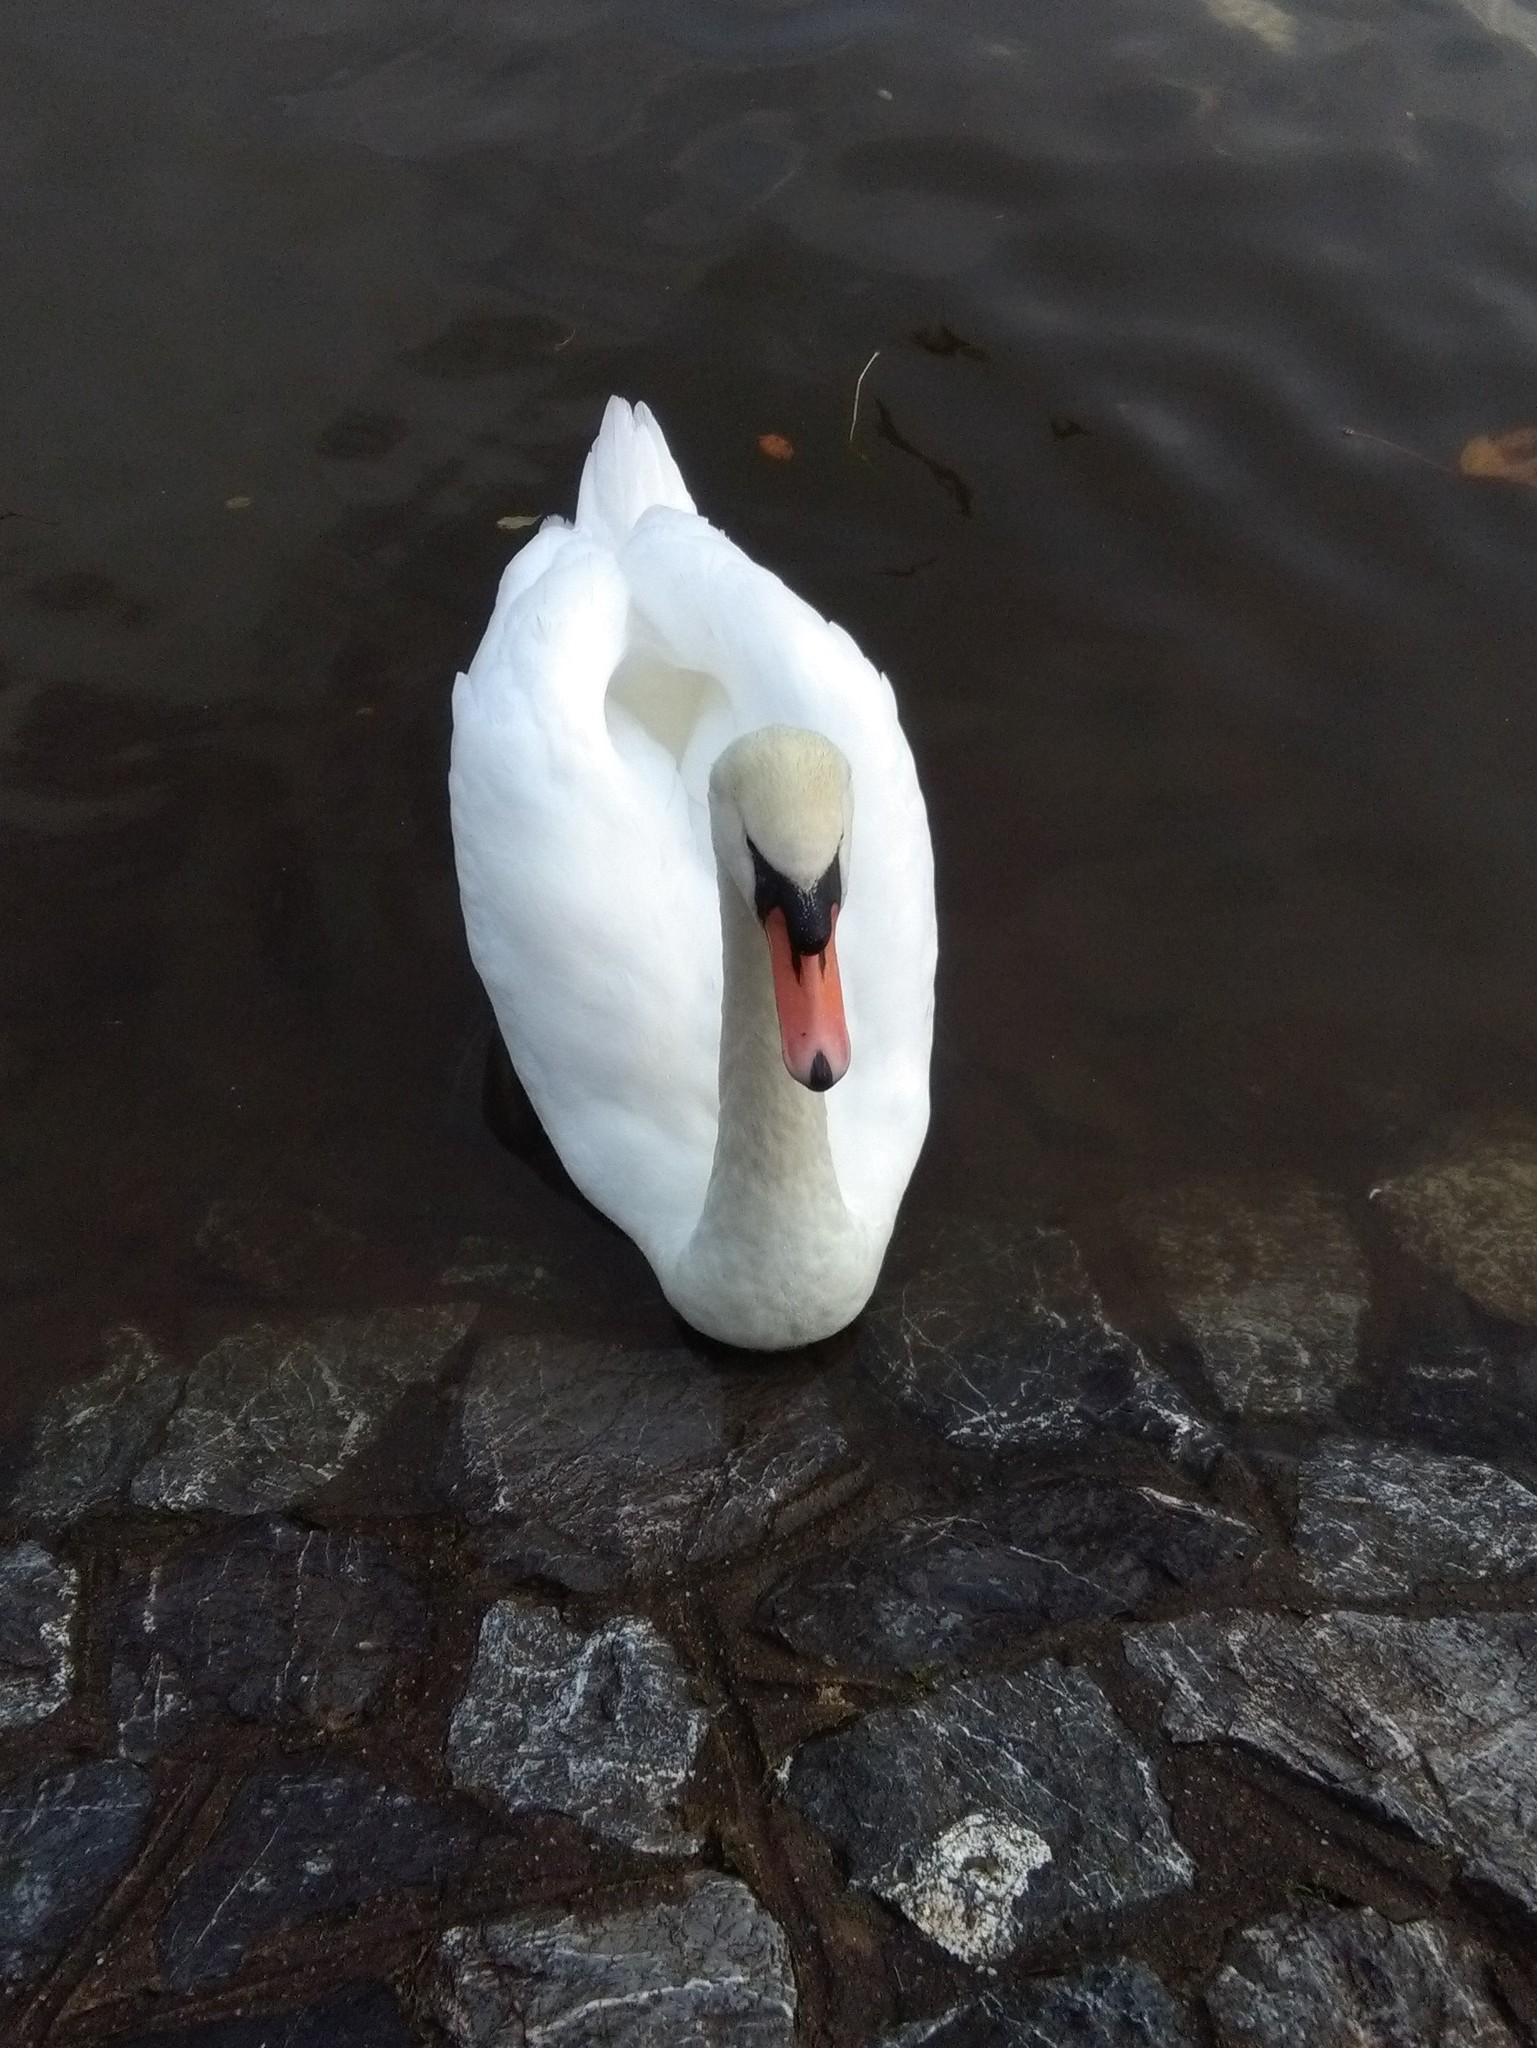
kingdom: Animalia
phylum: Chordata
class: Aves
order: Anseriformes
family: Anatidae
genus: Cygnus
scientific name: Cygnus olor
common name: Mute swan
